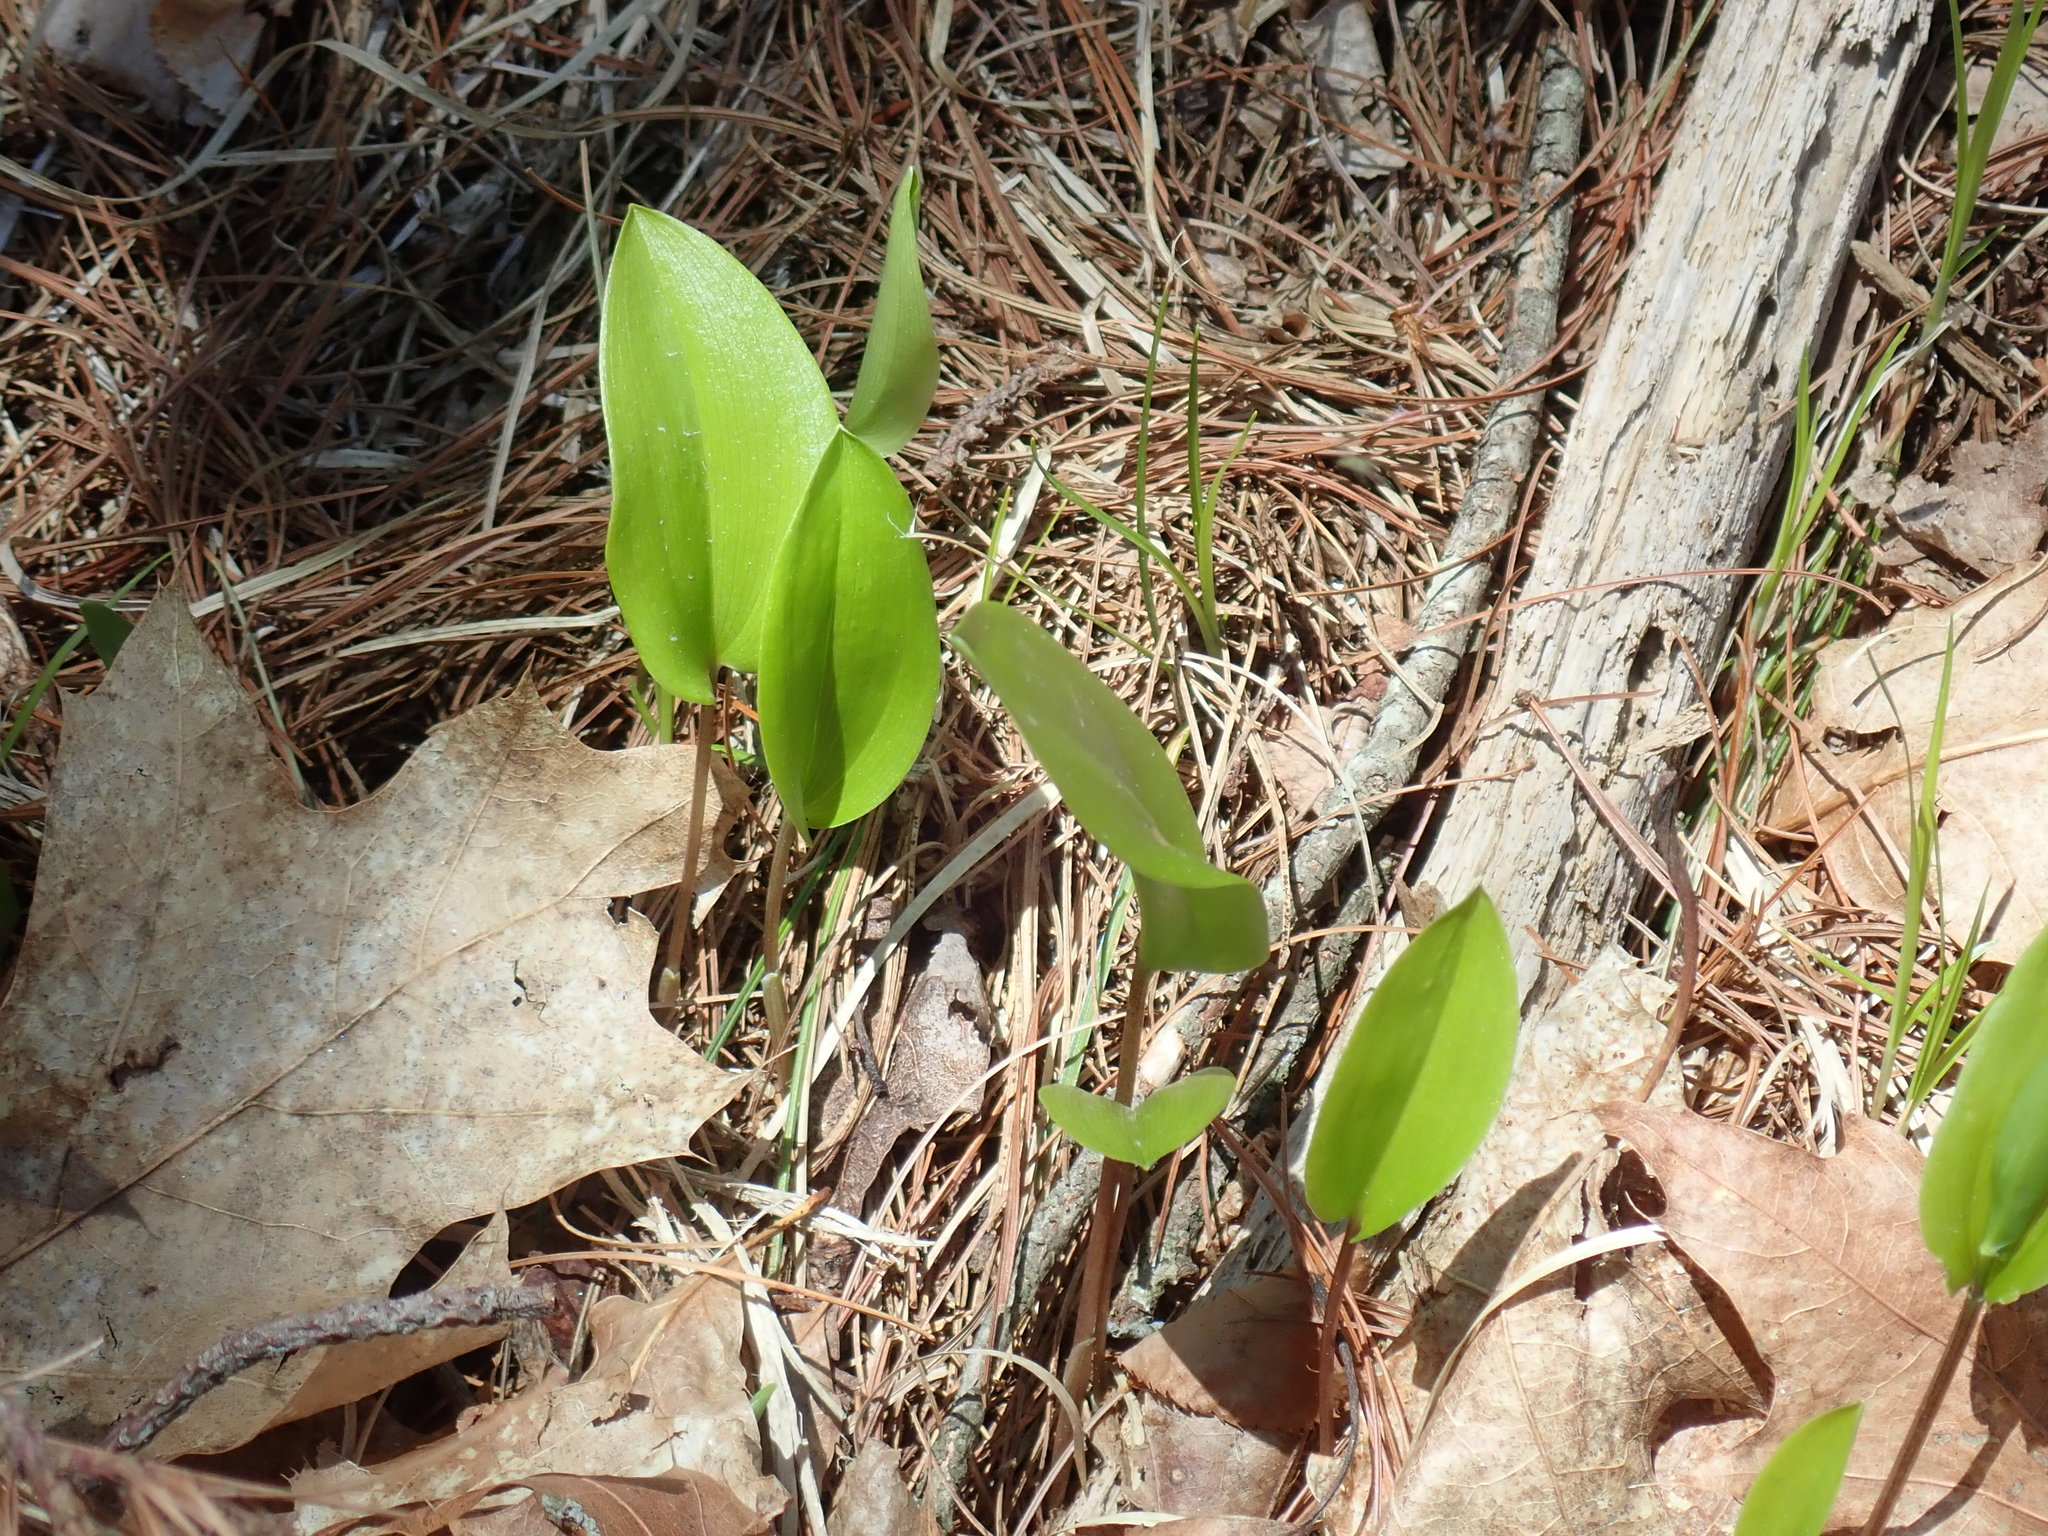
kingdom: Plantae
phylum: Tracheophyta
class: Liliopsida
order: Asparagales
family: Asparagaceae
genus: Maianthemum
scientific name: Maianthemum canadense
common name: False lily-of-the-valley
